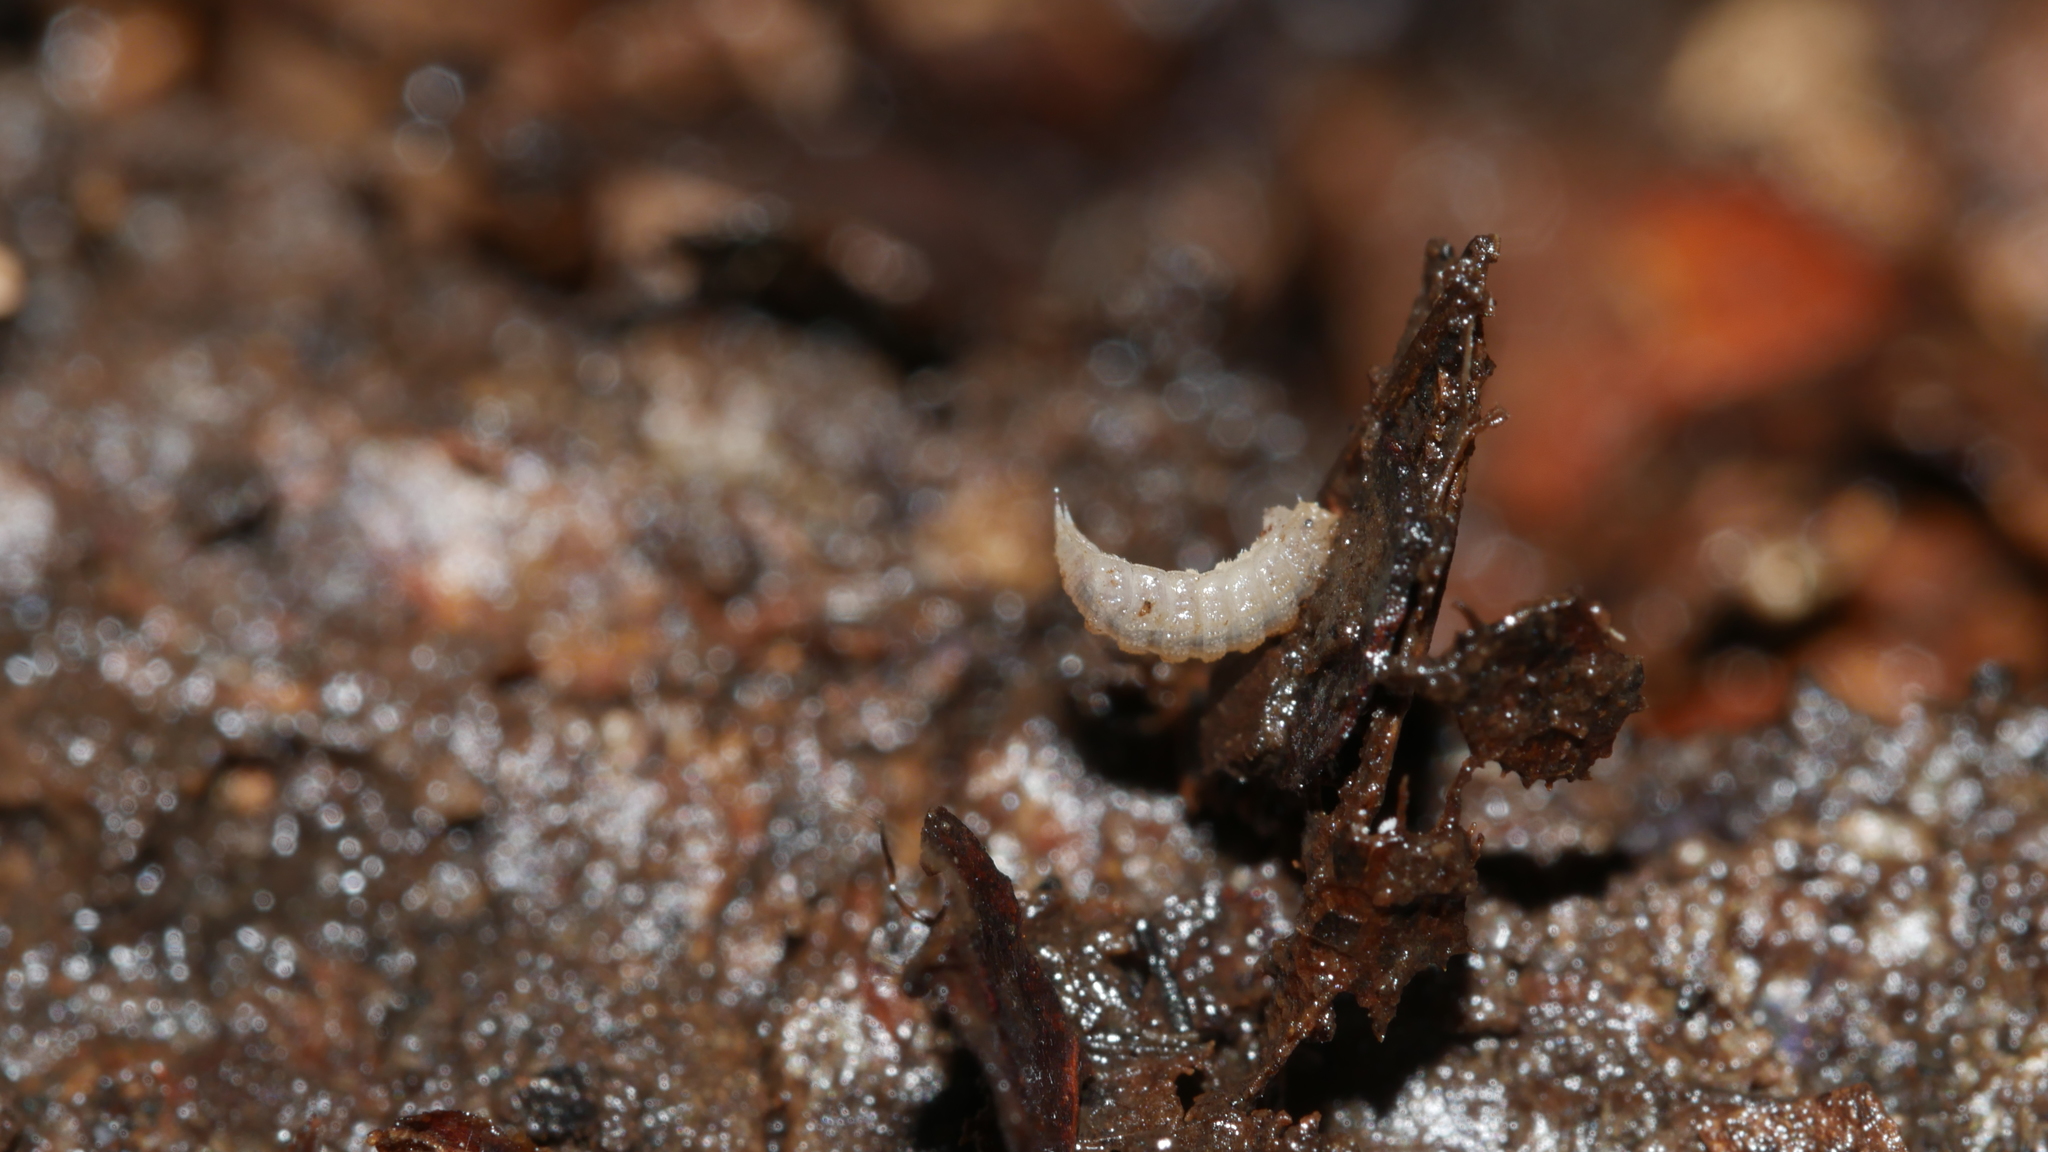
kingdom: Animalia
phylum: Arthropoda
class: Malacostraca
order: Isopoda
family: Trichoniscidae
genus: Haplophthalmus
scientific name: Haplophthalmus danicus
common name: Pillbug
